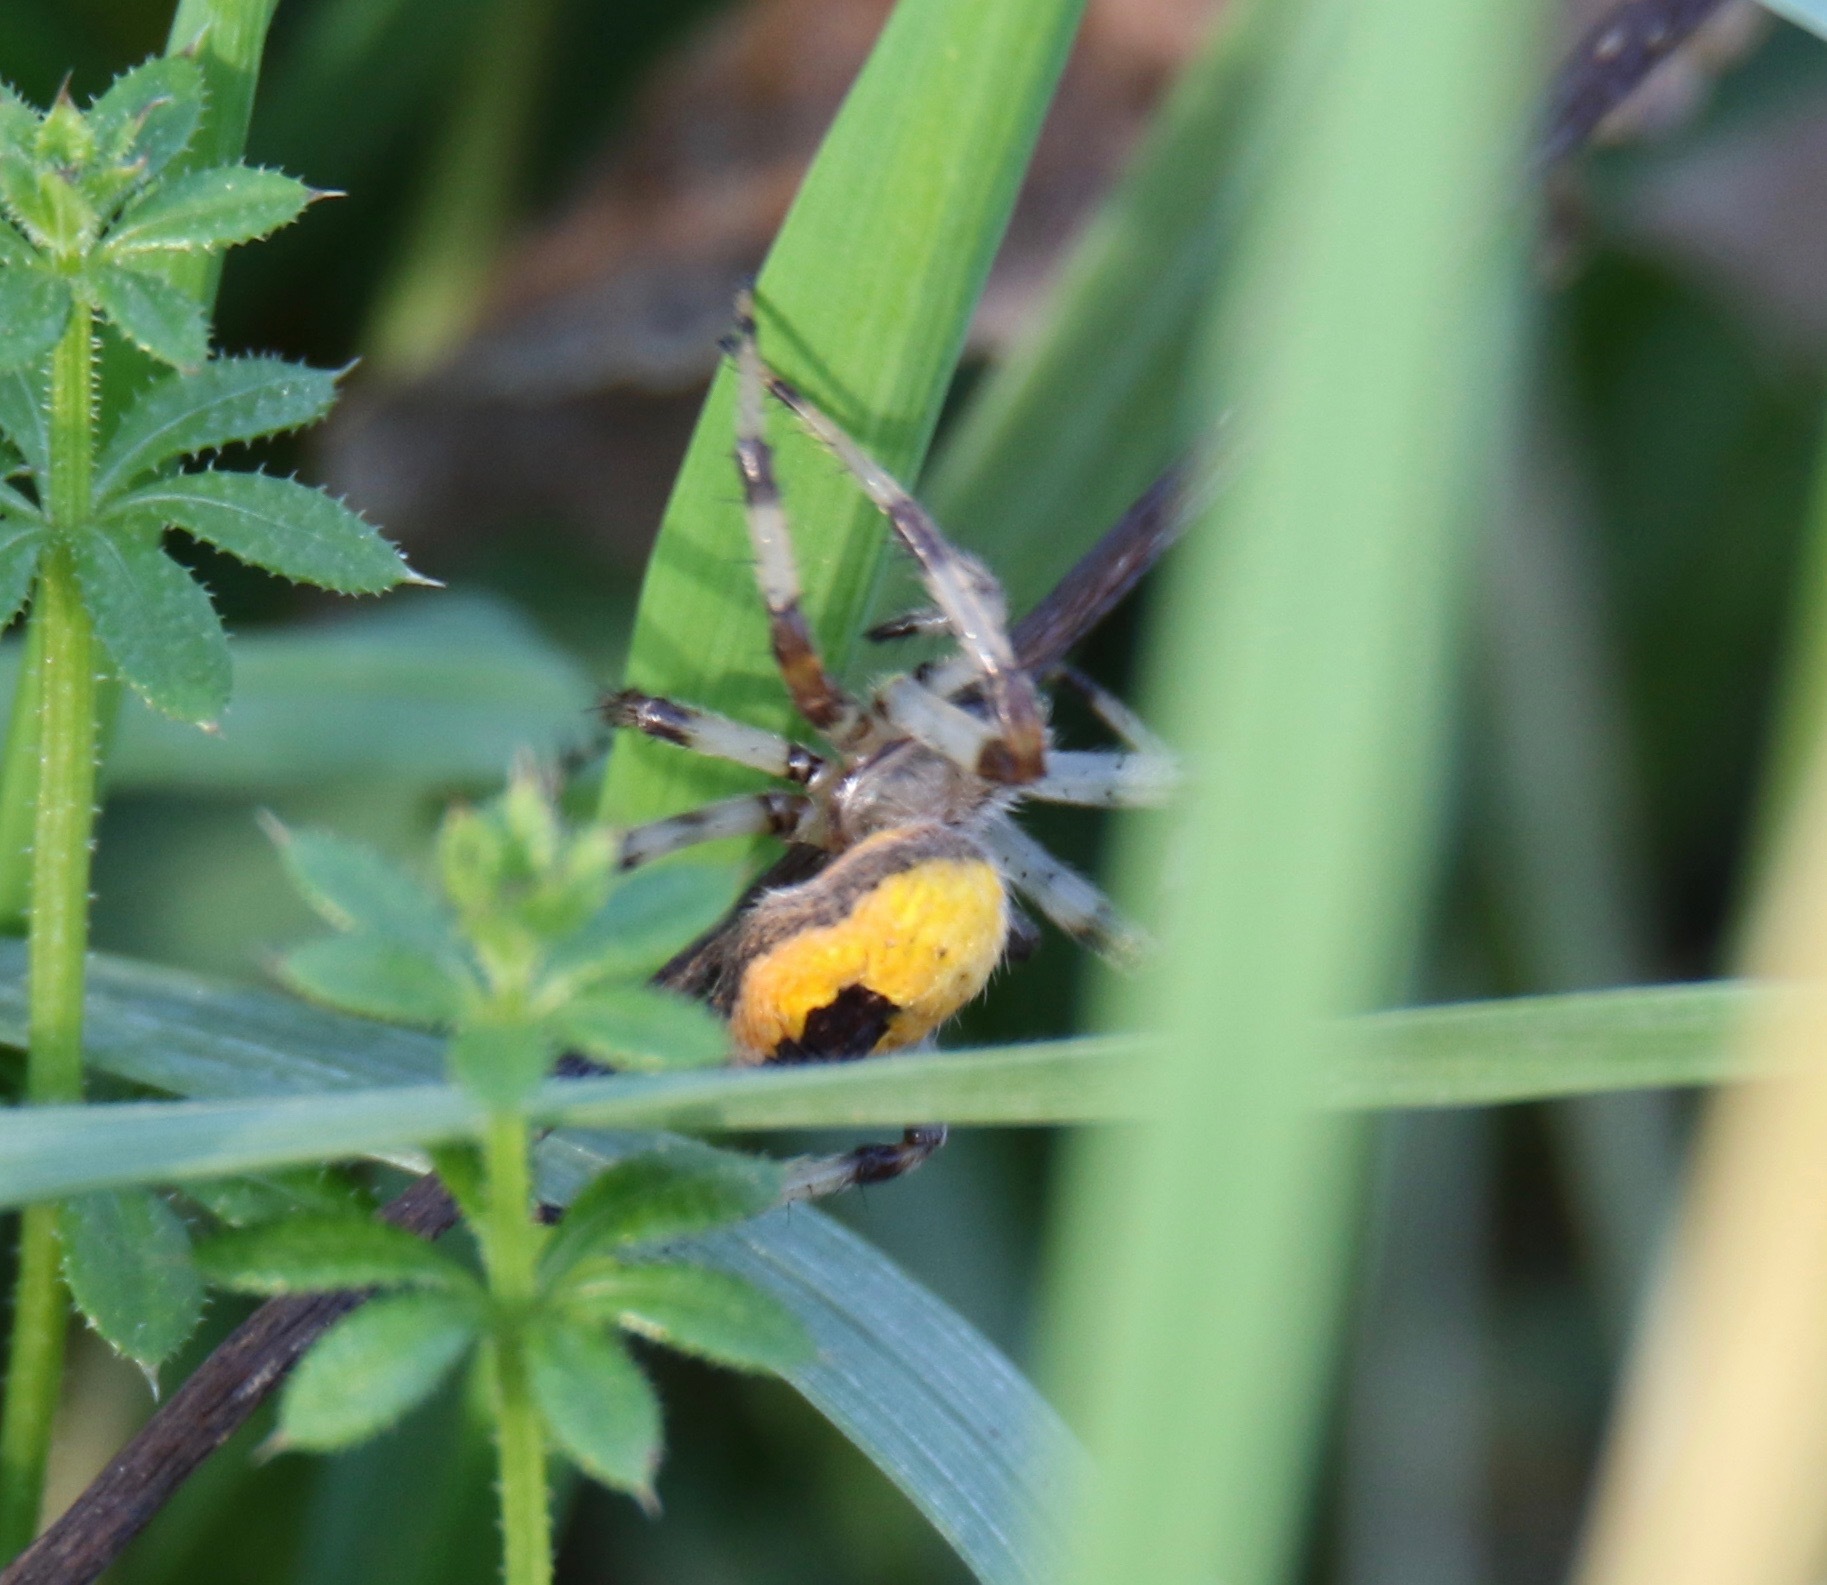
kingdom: Animalia
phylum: Arthropoda
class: Arachnida
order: Araneae
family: Araneidae
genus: Araneus
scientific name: Araneus marmoreus
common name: Marbled orbweaver
